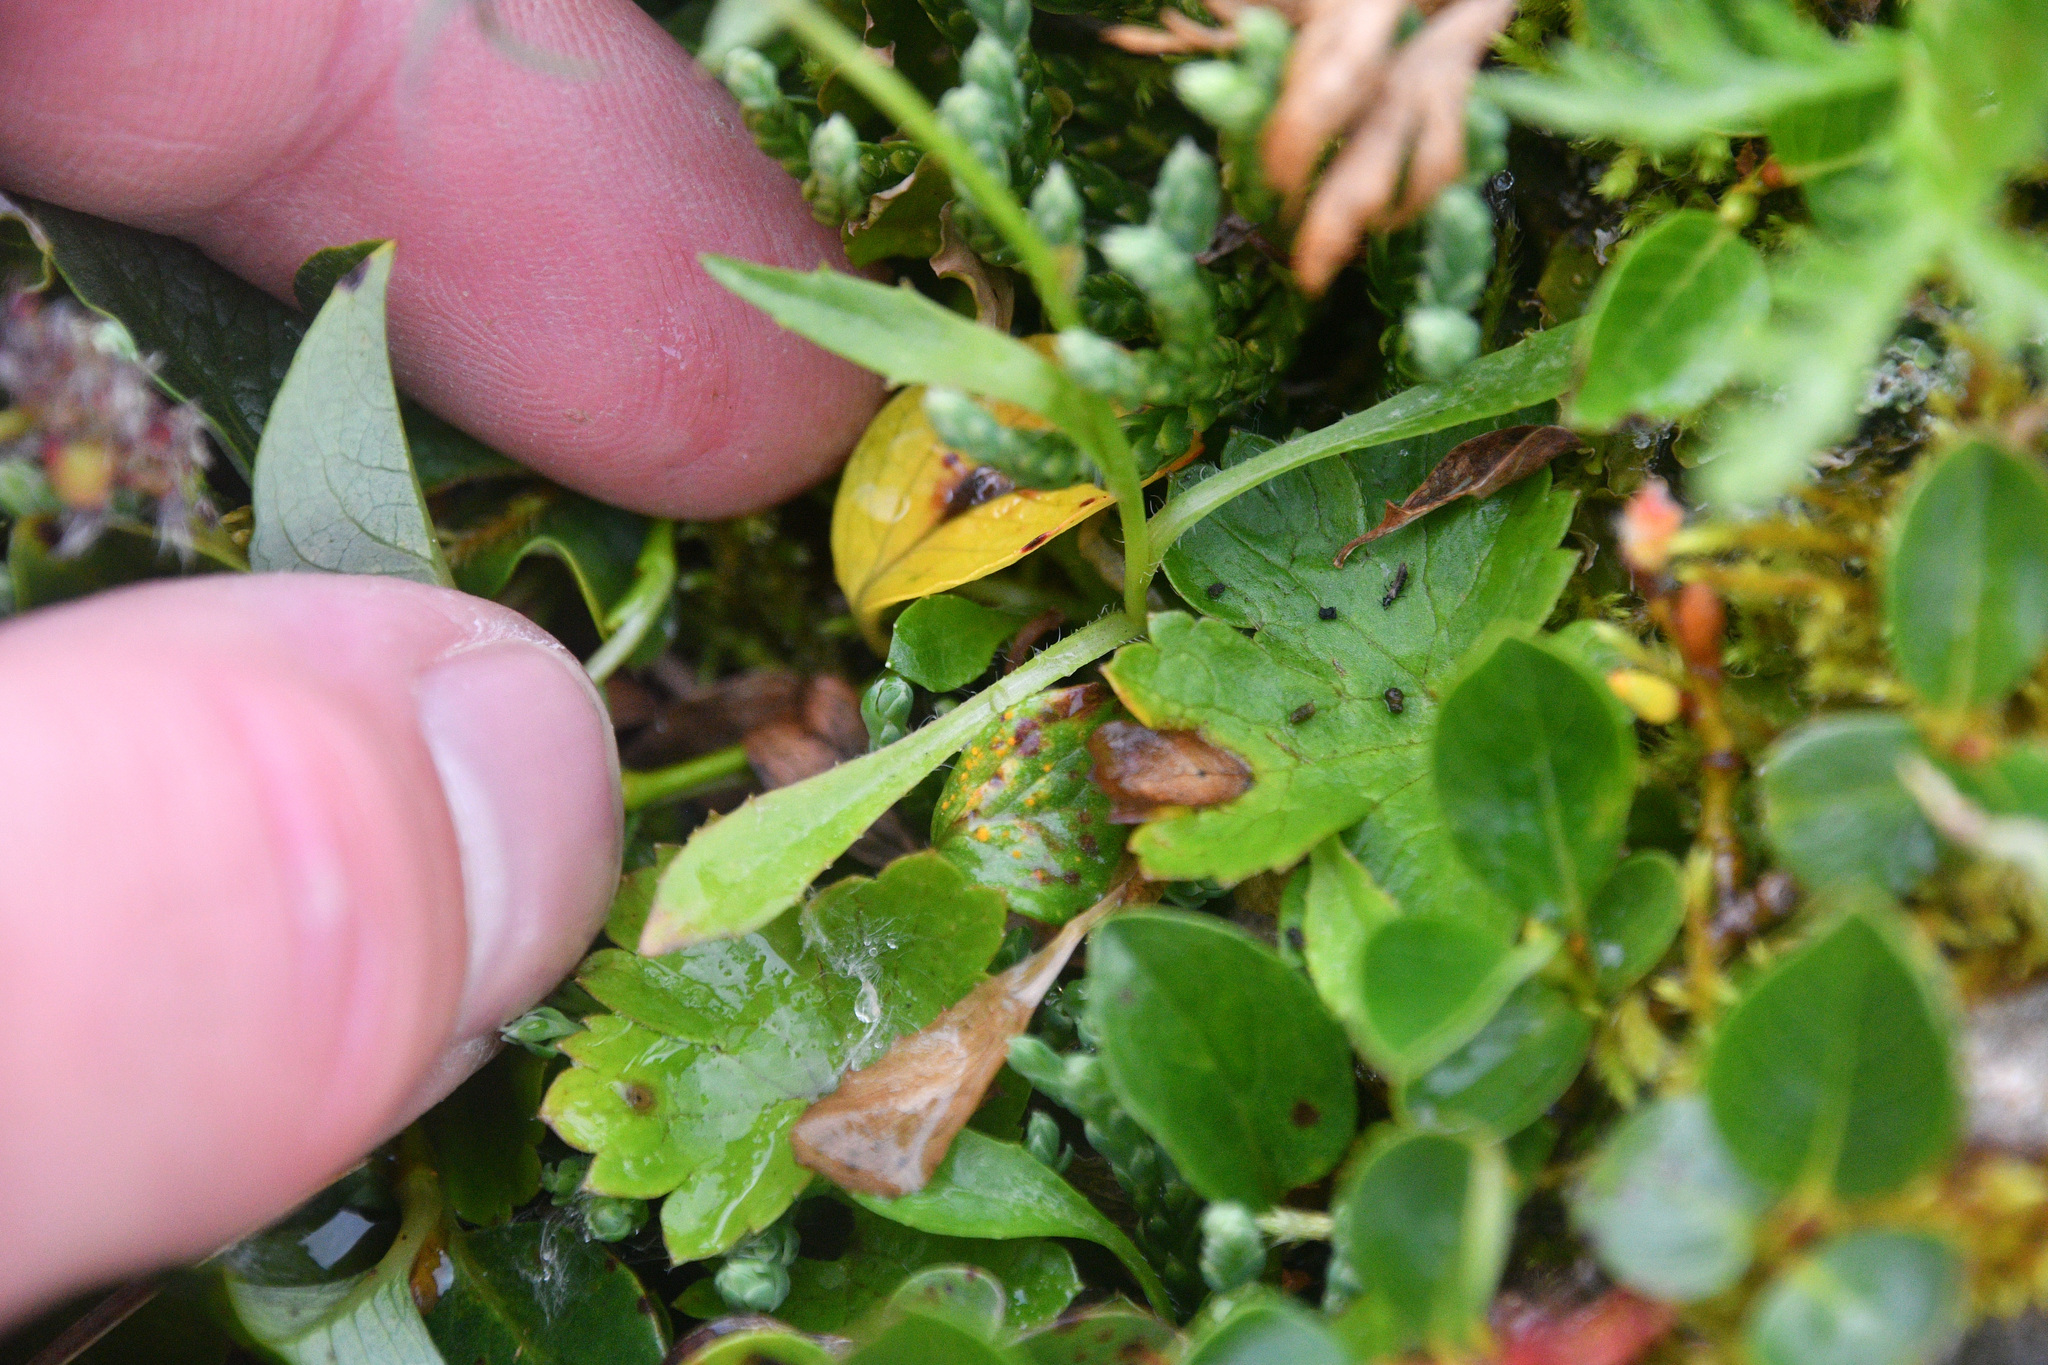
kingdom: Plantae
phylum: Tracheophyta
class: Magnoliopsida
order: Asterales
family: Campanulaceae
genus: Campanula
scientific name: Campanula lasiocarpa
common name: Mountain harebell
